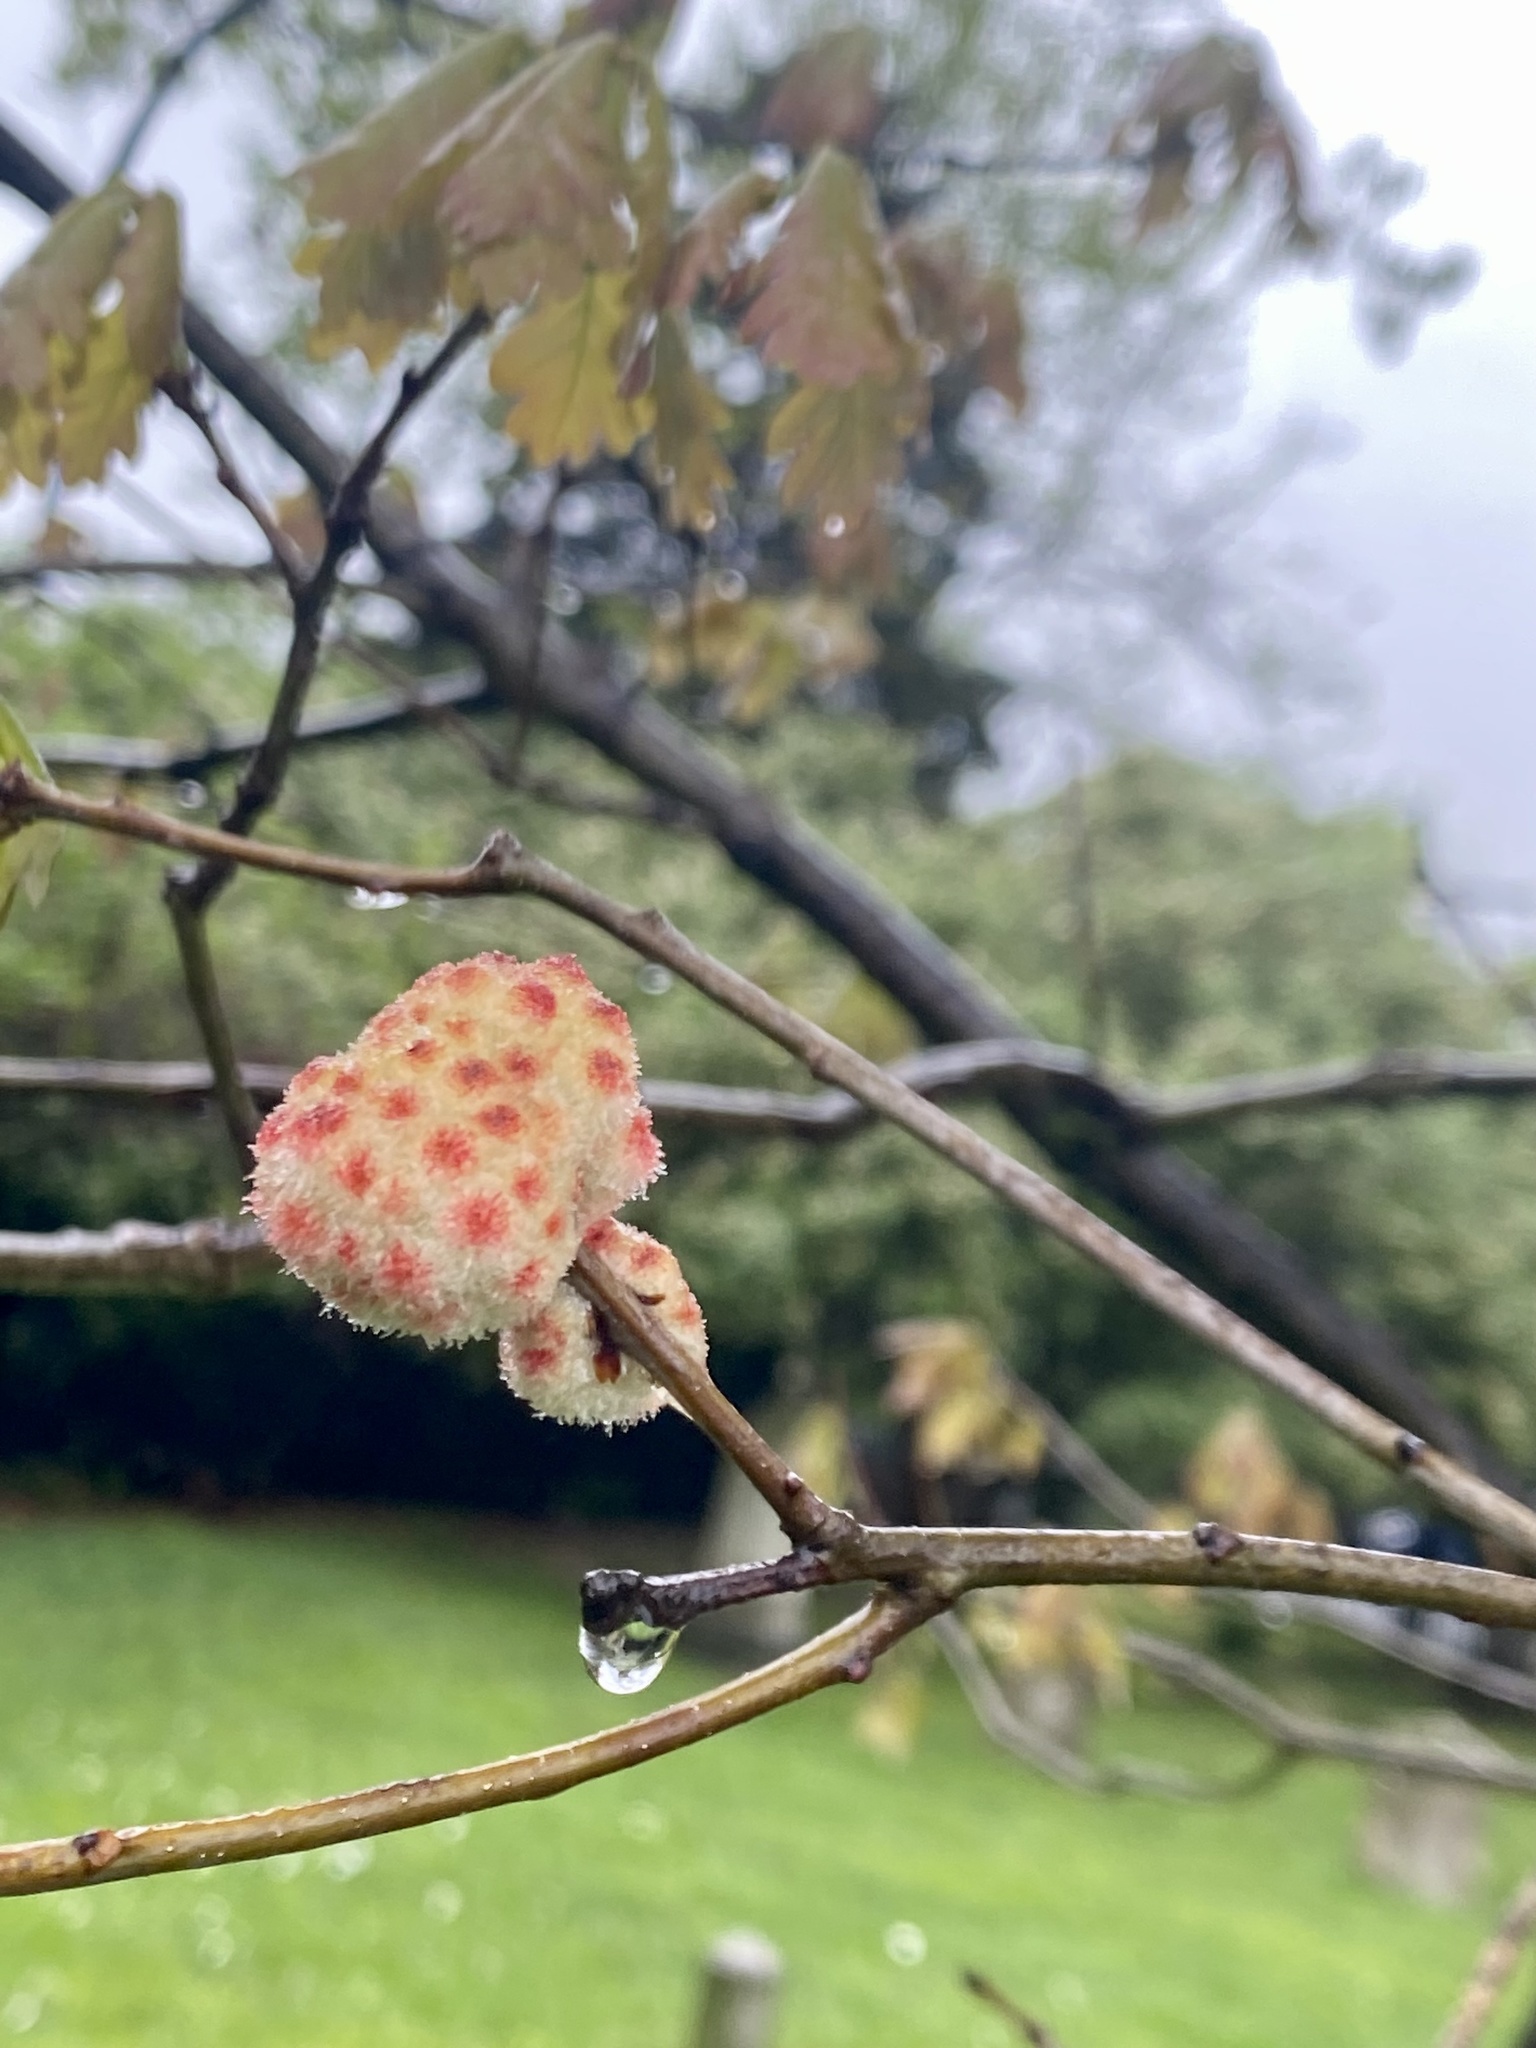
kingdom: Animalia
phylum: Arthropoda
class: Insecta
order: Hymenoptera
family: Cynipidae
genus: Callirhytis
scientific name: Callirhytis
